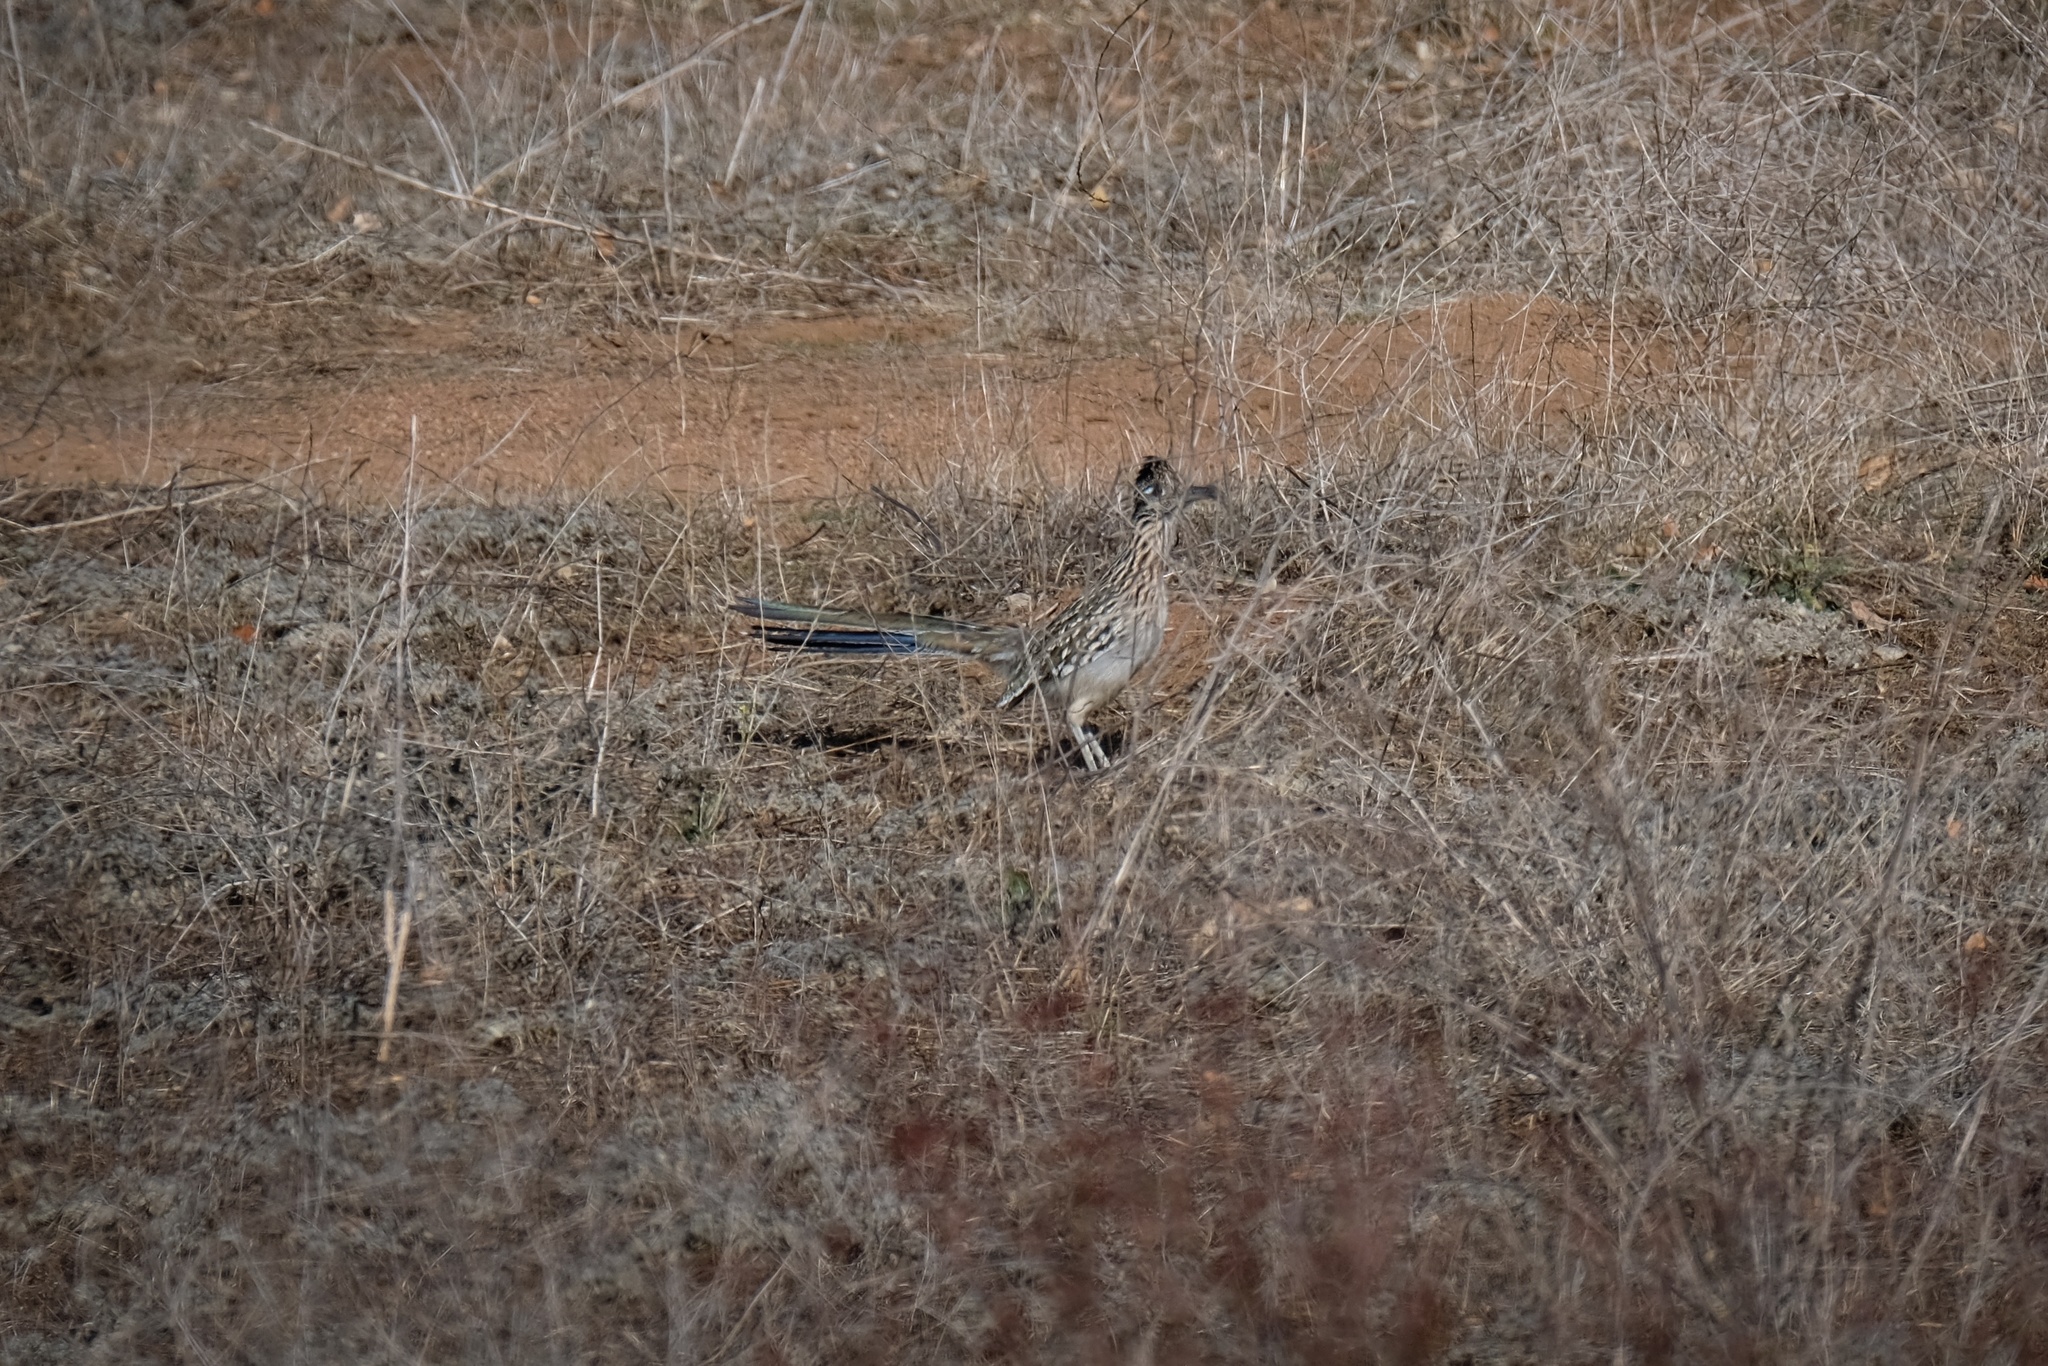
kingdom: Animalia
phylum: Chordata
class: Aves
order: Cuculiformes
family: Cuculidae
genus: Geococcyx
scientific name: Geococcyx californianus
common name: Greater roadrunner
